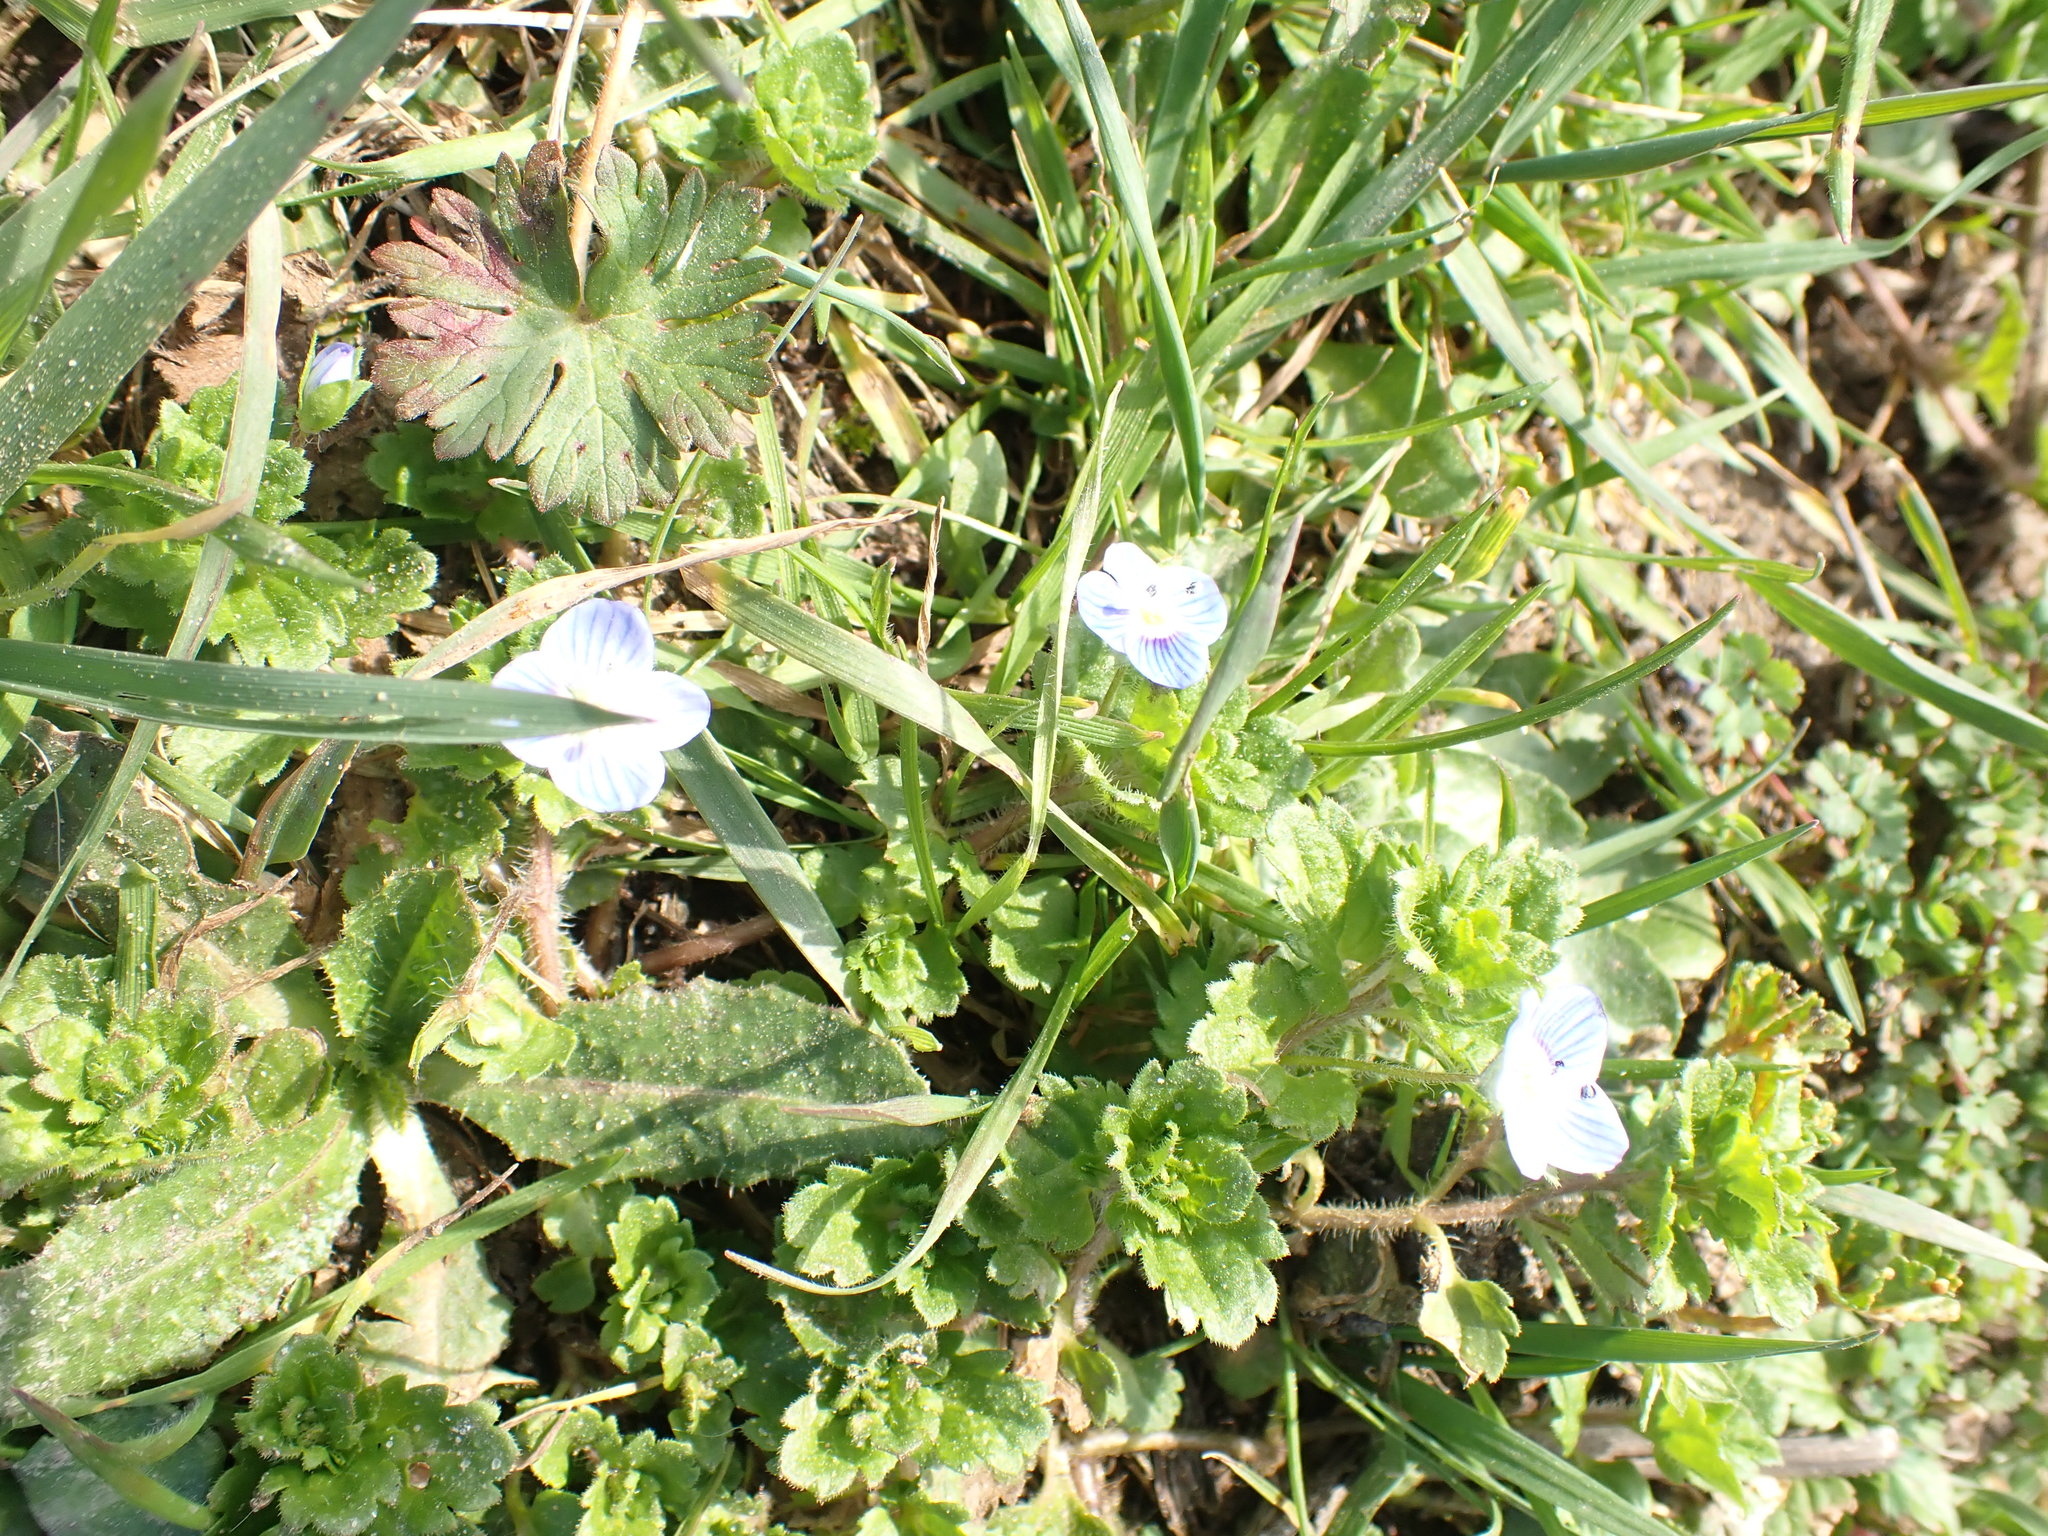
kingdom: Plantae
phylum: Tracheophyta
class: Magnoliopsida
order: Lamiales
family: Plantaginaceae
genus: Veronica
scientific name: Veronica persica
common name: Common field-speedwell
